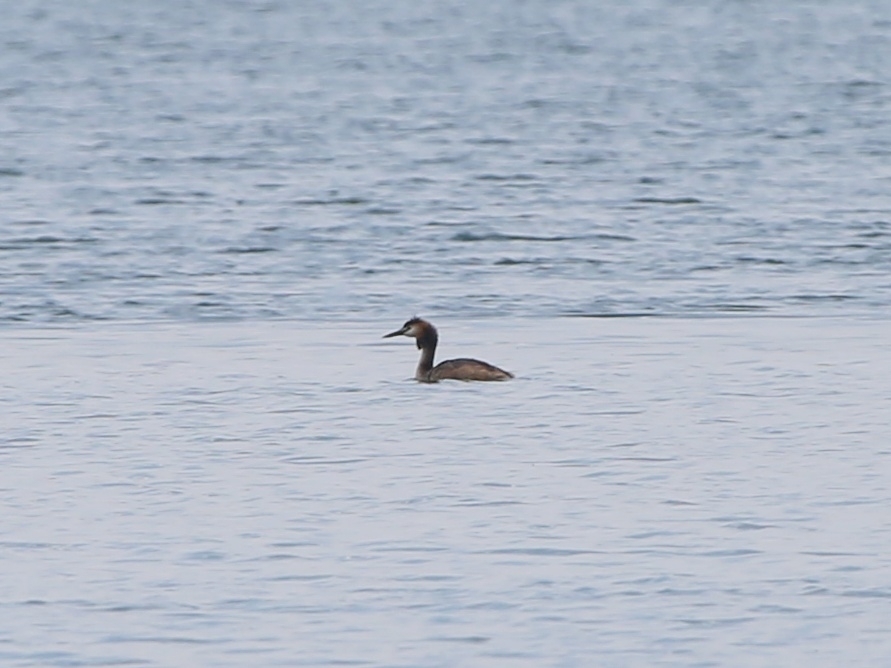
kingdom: Animalia
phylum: Chordata
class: Aves
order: Podicipediformes
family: Podicipedidae
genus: Podiceps
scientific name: Podiceps cristatus
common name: Great crested grebe
